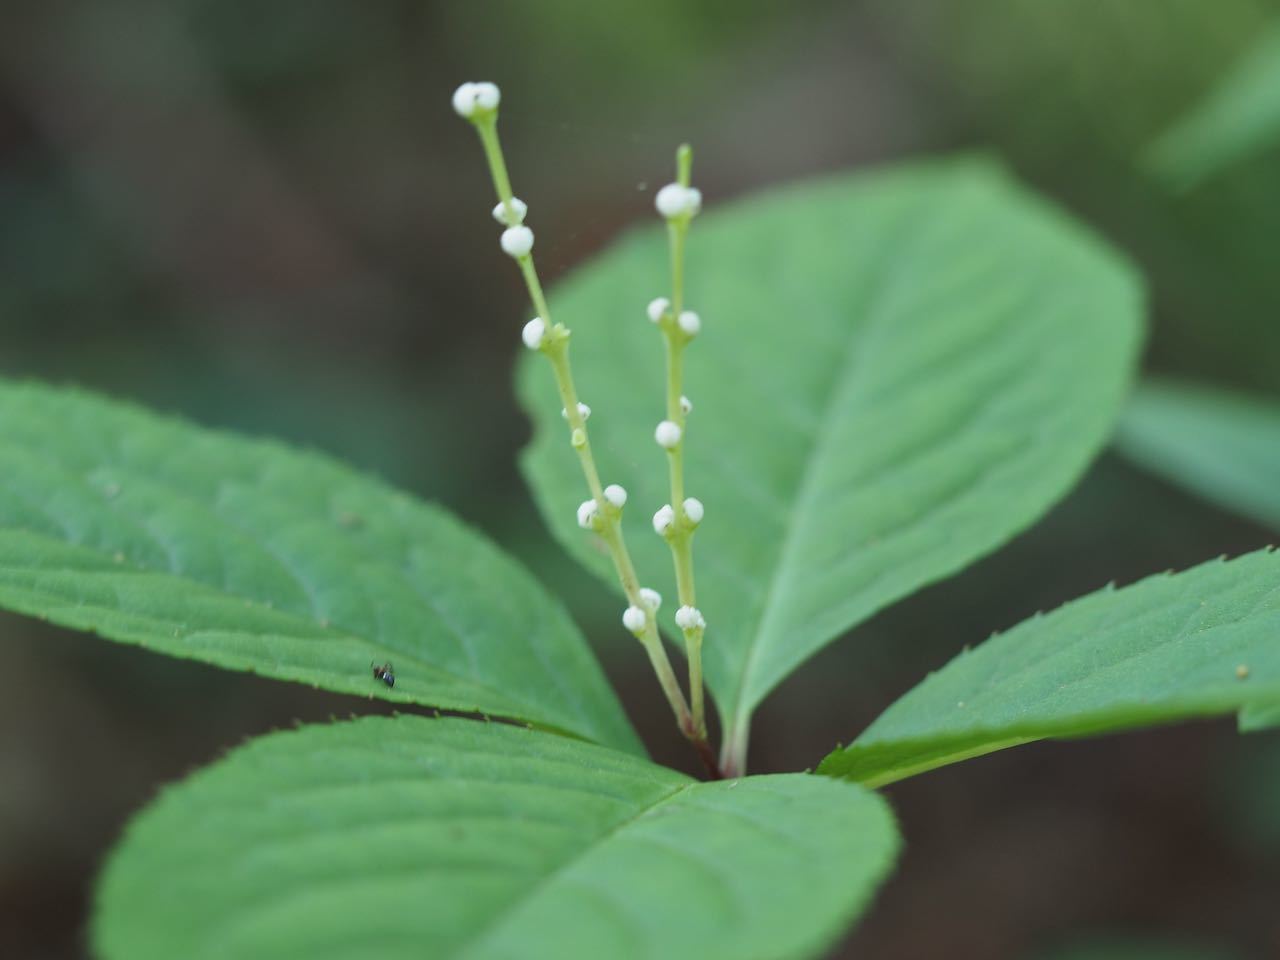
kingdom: Plantae
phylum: Tracheophyta
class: Magnoliopsida
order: Chloranthales
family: Chloranthaceae
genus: Chloranthus
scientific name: Chloranthus serratus
